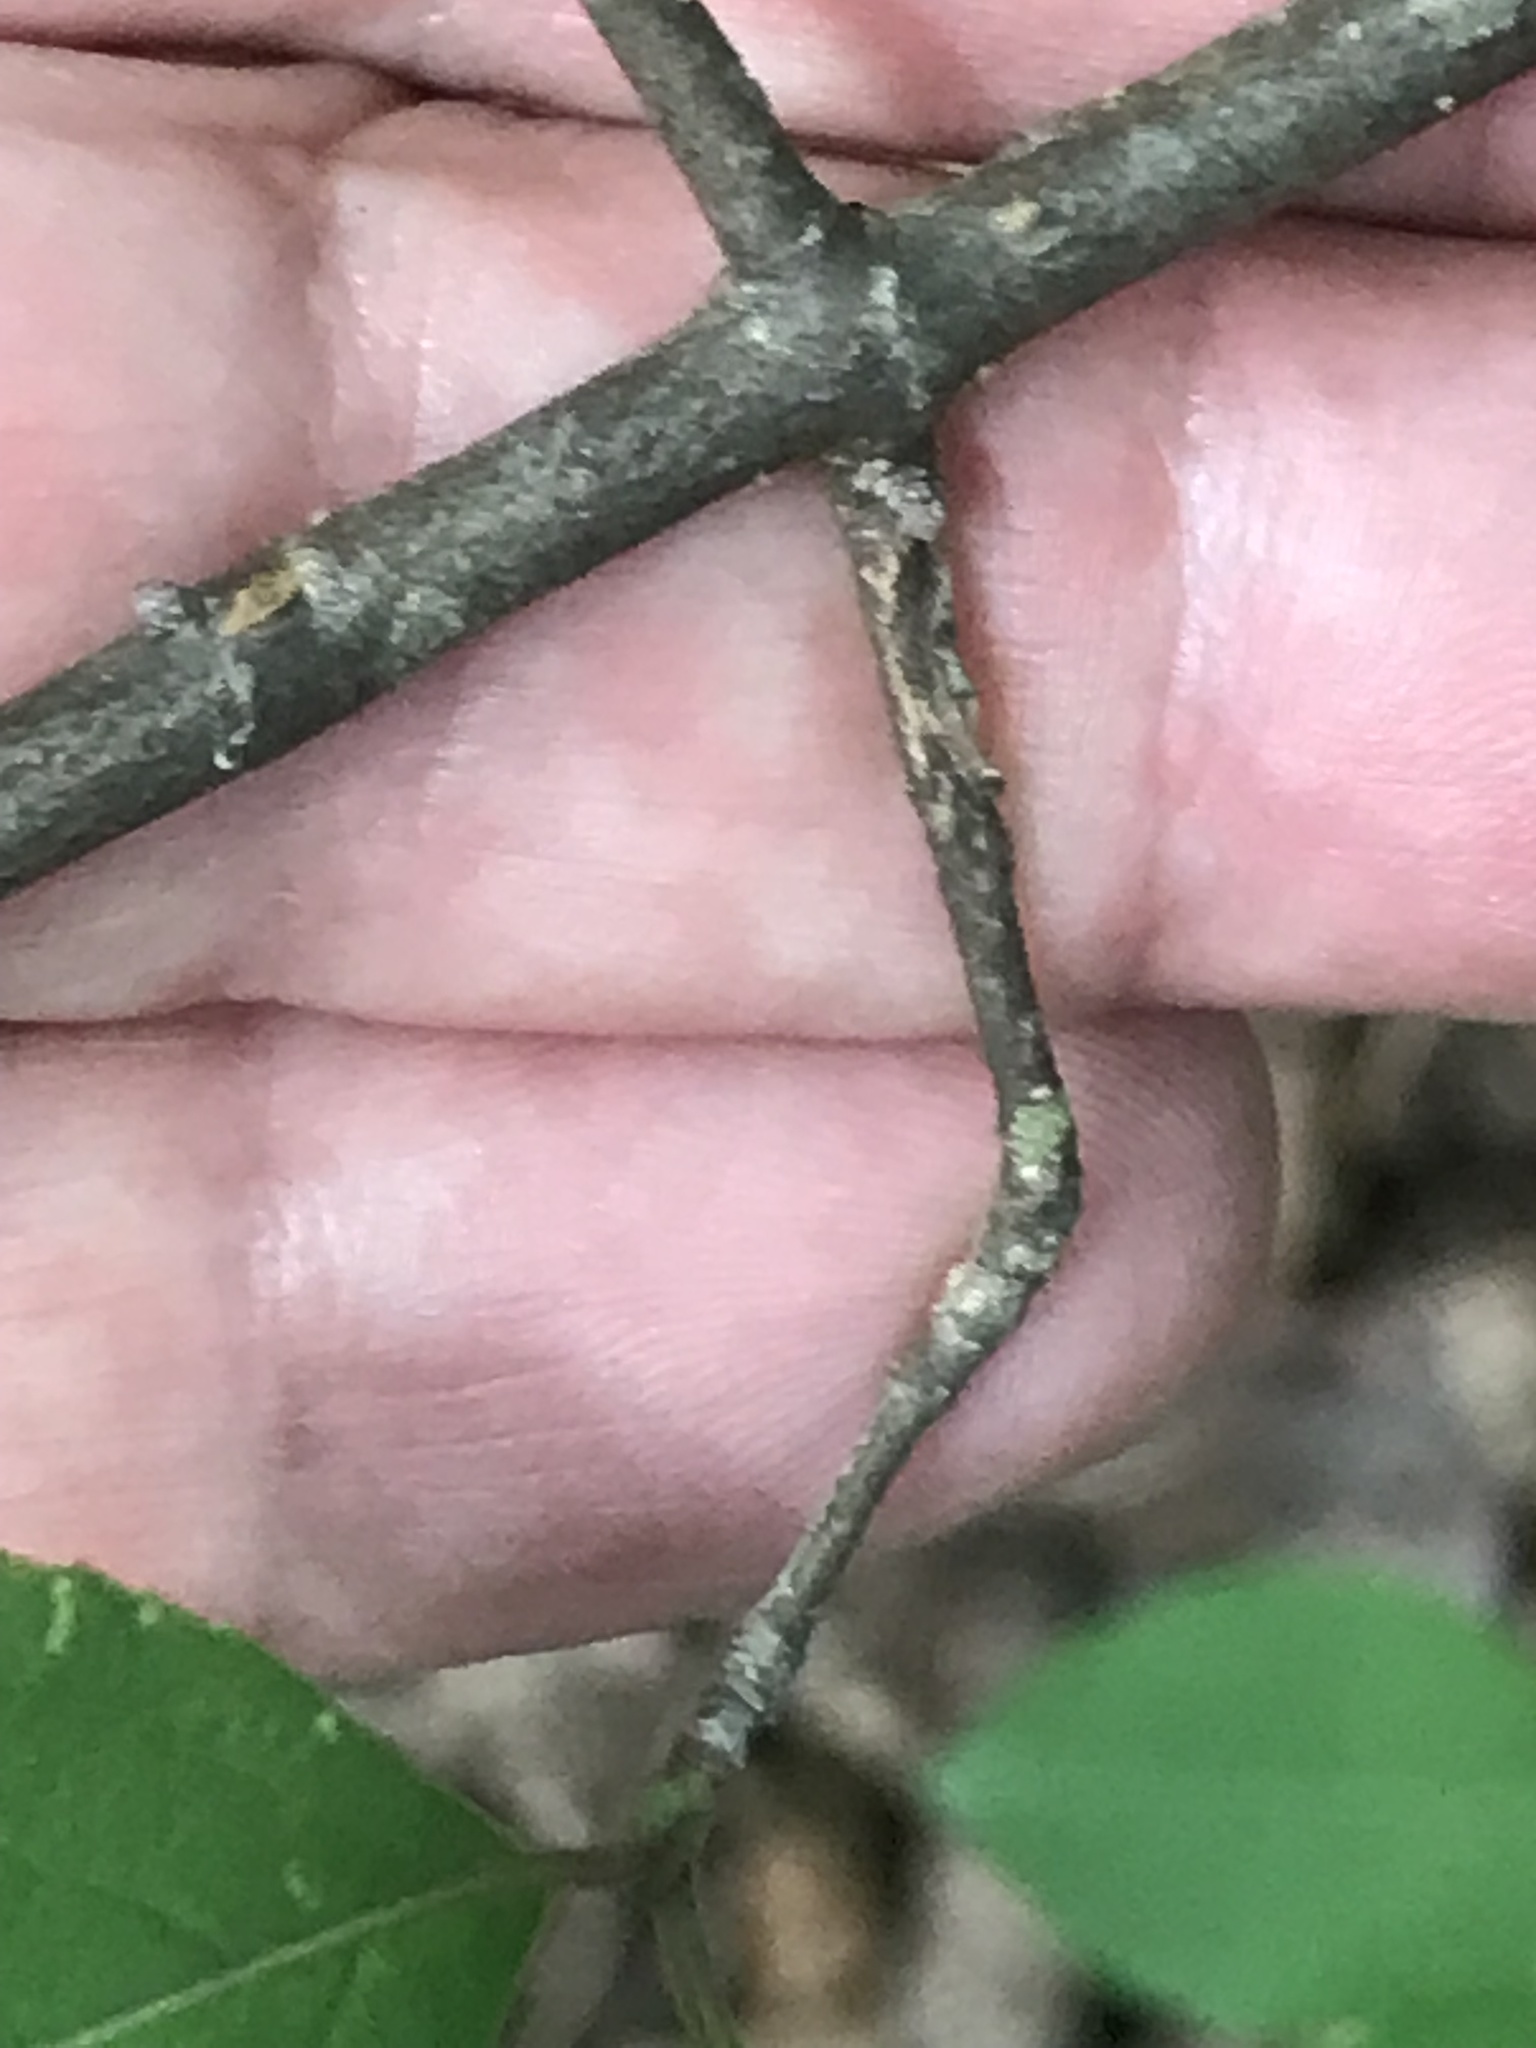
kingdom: Plantae
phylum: Tracheophyta
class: Magnoliopsida
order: Dipsacales
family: Viburnaceae
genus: Viburnum
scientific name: Viburnum prunifolium
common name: Black haw
